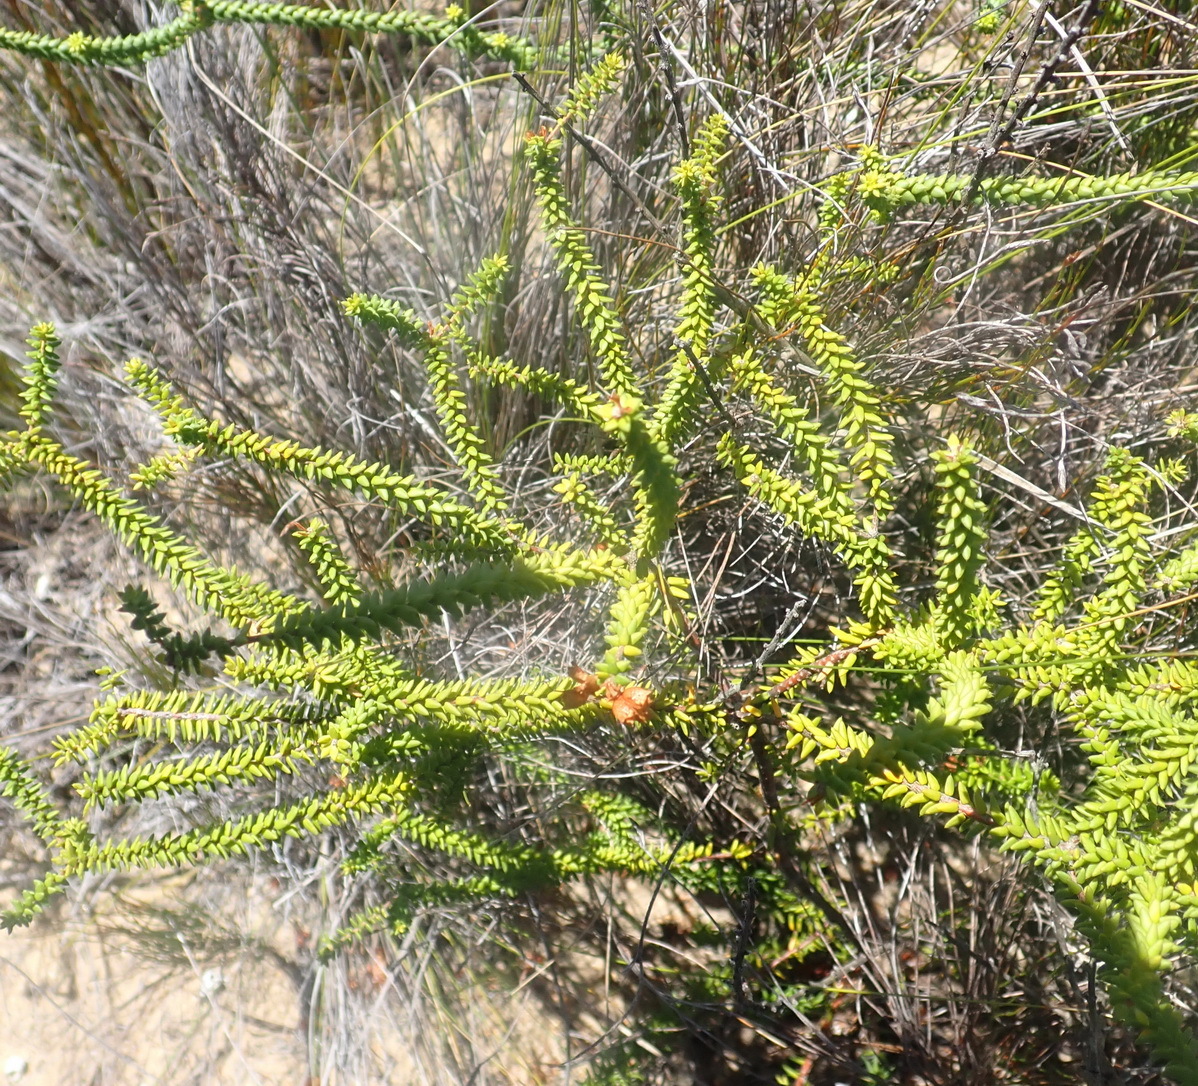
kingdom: Plantae
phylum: Tracheophyta
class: Magnoliopsida
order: Sapindales
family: Rutaceae
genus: Agathosma
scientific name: Agathosma apiculata
